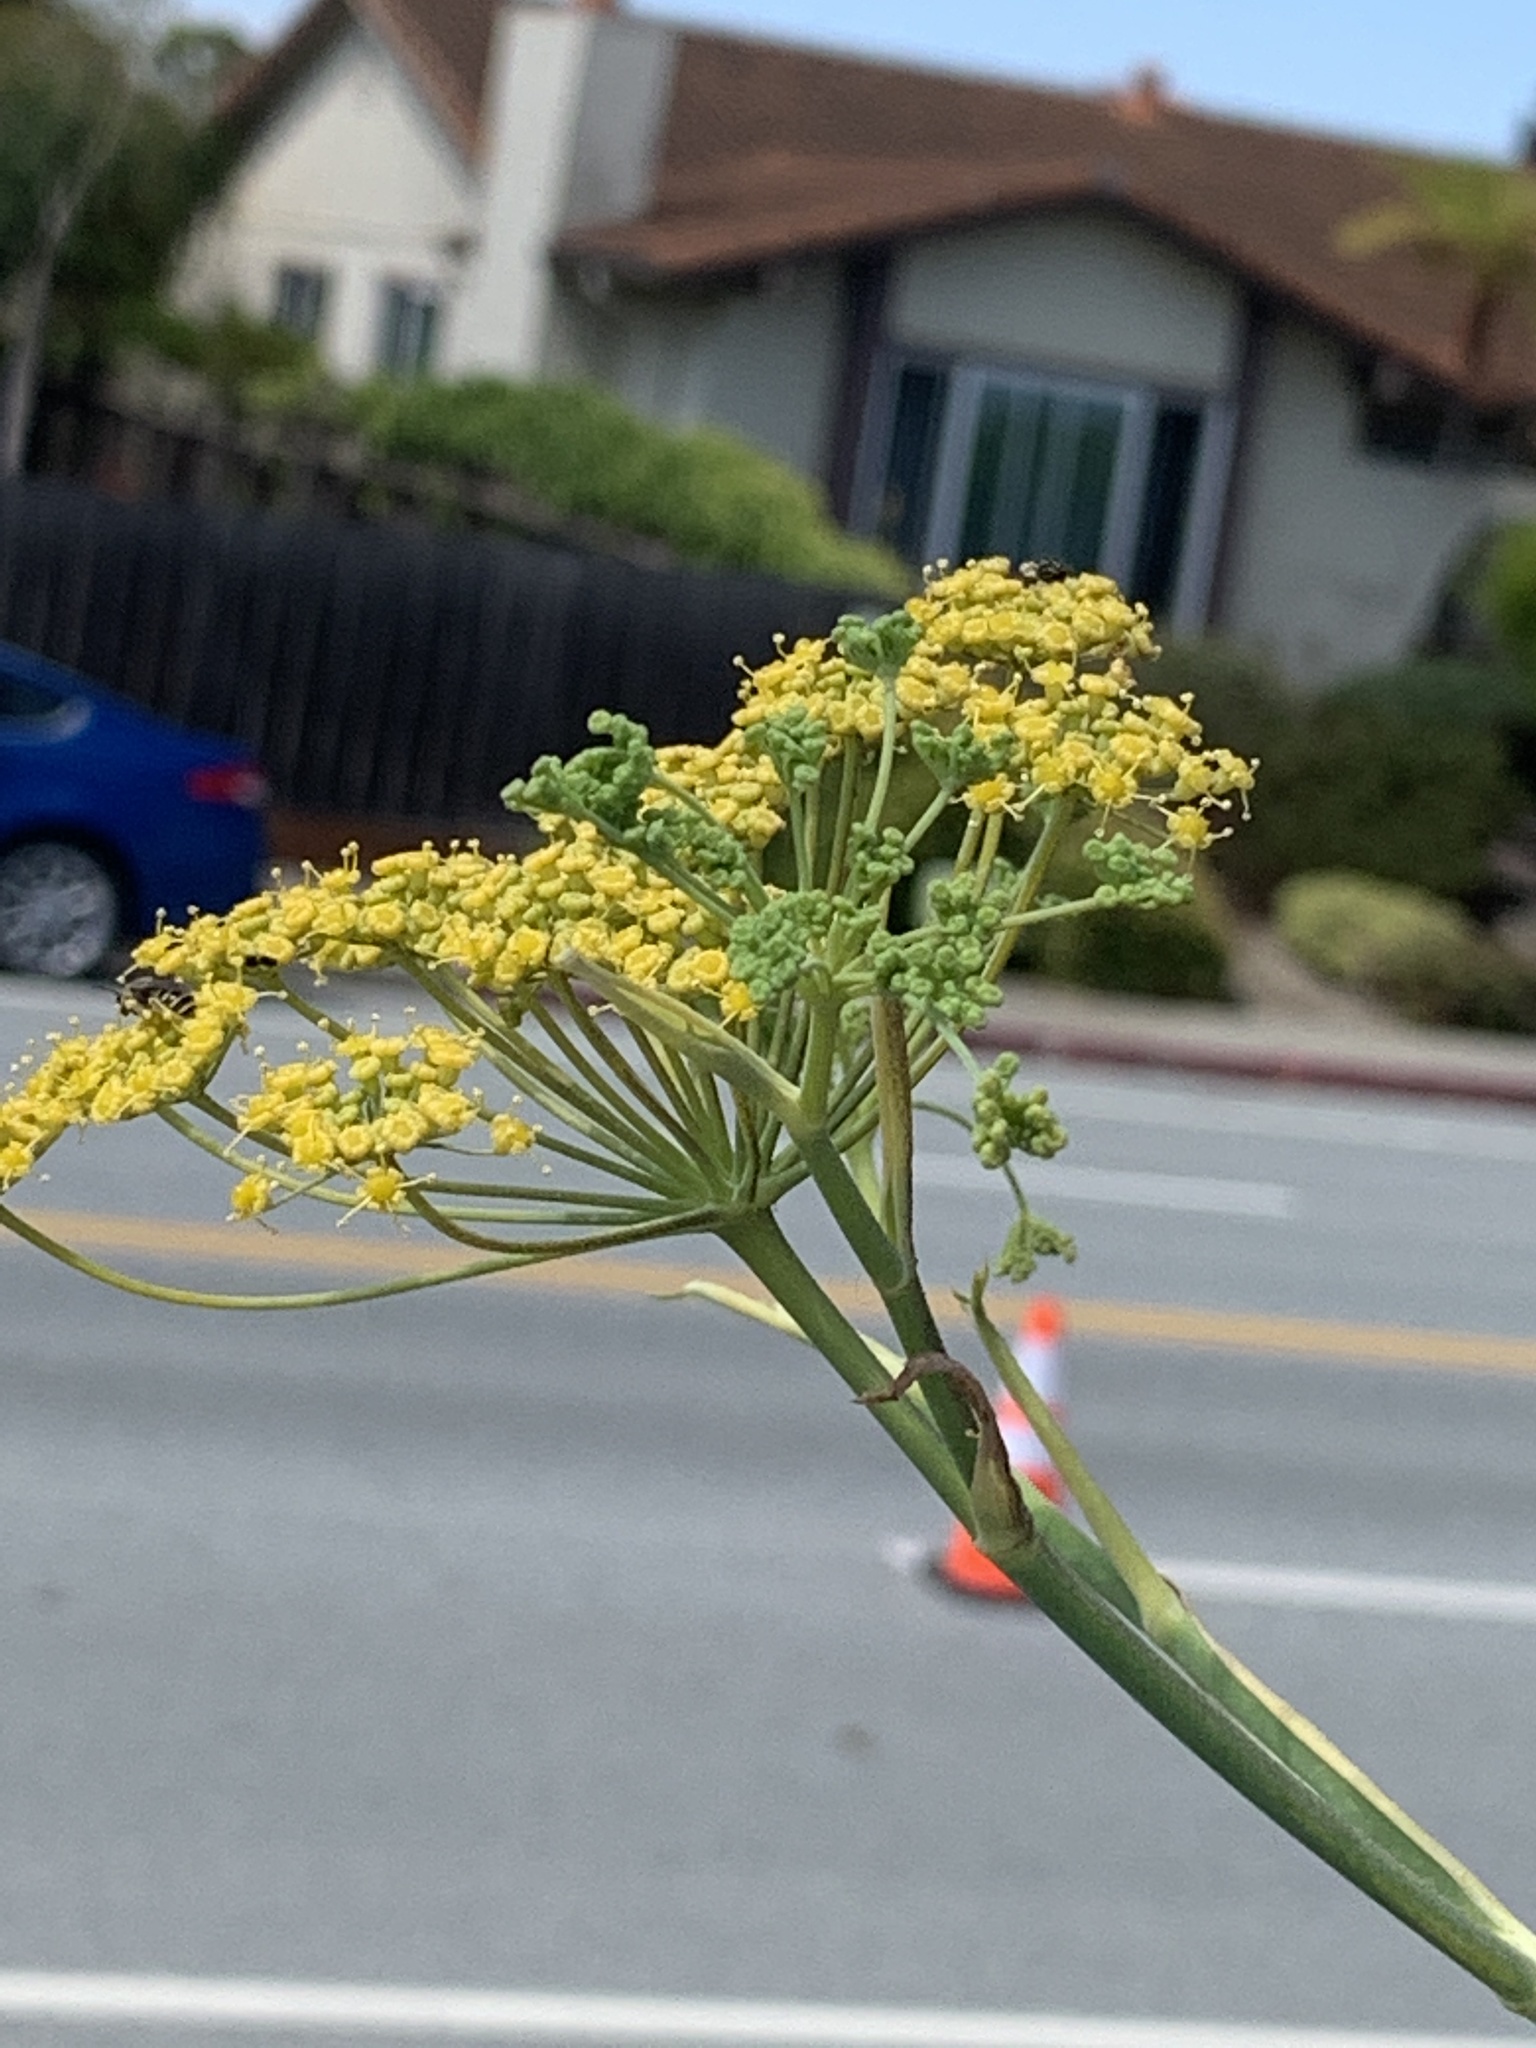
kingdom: Plantae
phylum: Tracheophyta
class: Magnoliopsida
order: Apiales
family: Apiaceae
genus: Foeniculum
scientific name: Foeniculum vulgare
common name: Fennel
